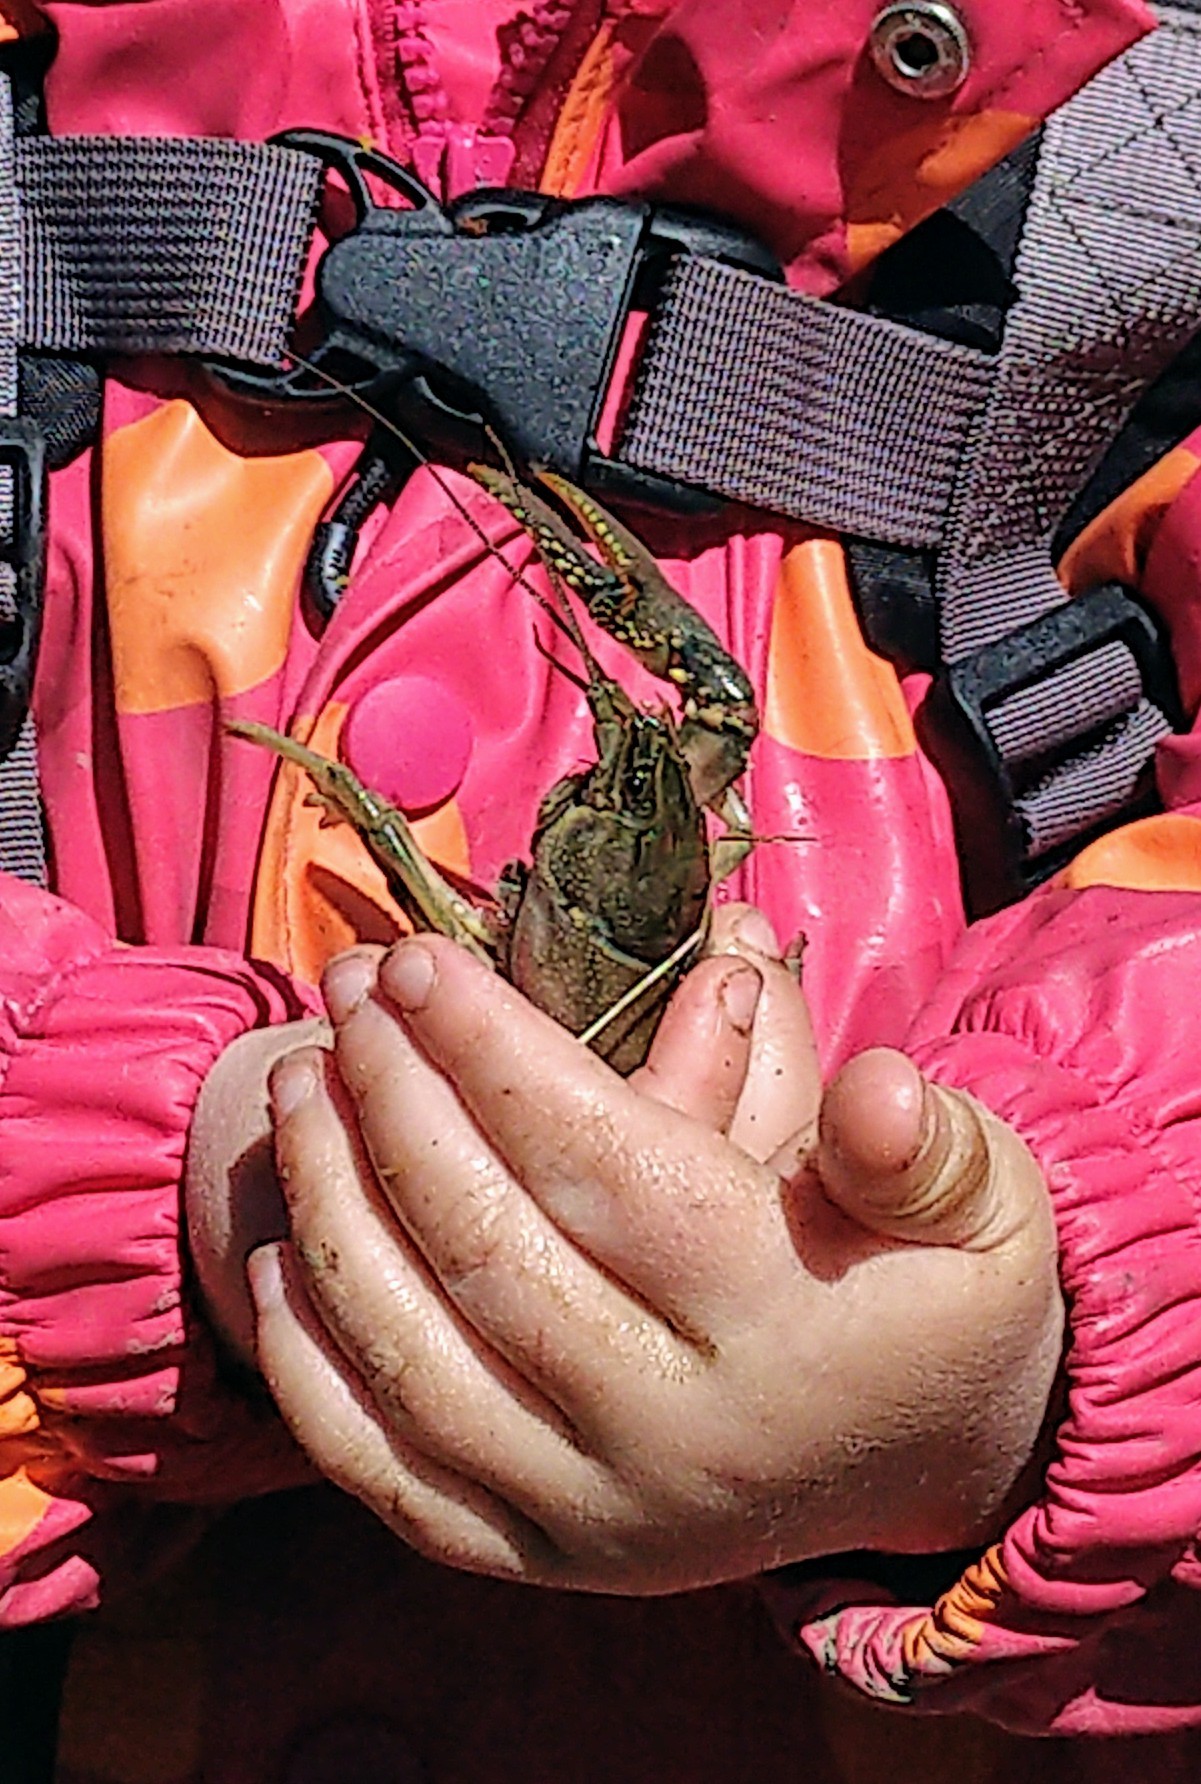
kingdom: Animalia
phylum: Arthropoda
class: Malacostraca
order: Decapoda
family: Cambaridae
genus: Faxonius
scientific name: Faxonius virilis
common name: Virile crayfish
